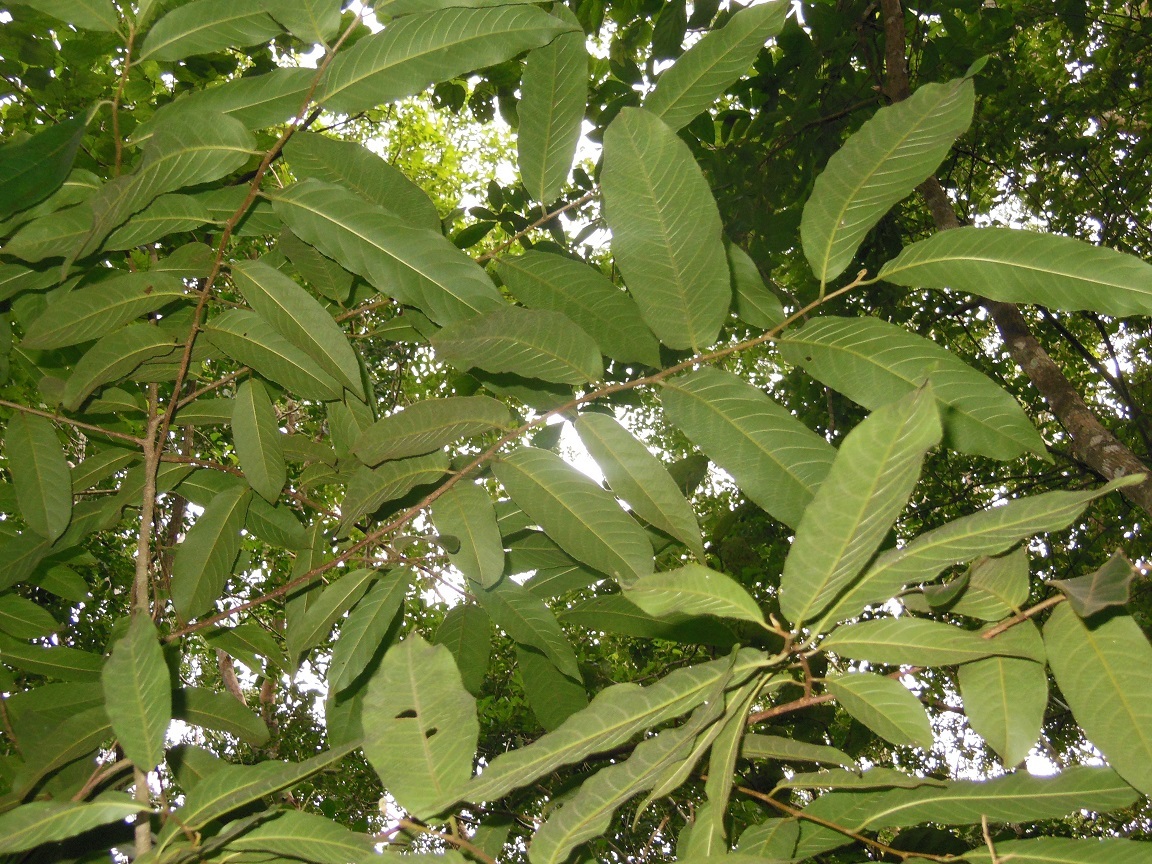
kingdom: Plantae
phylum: Tracheophyta
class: Magnoliopsida
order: Malpighiales
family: Salicaceae
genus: Casearia
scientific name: Casearia icosandra
